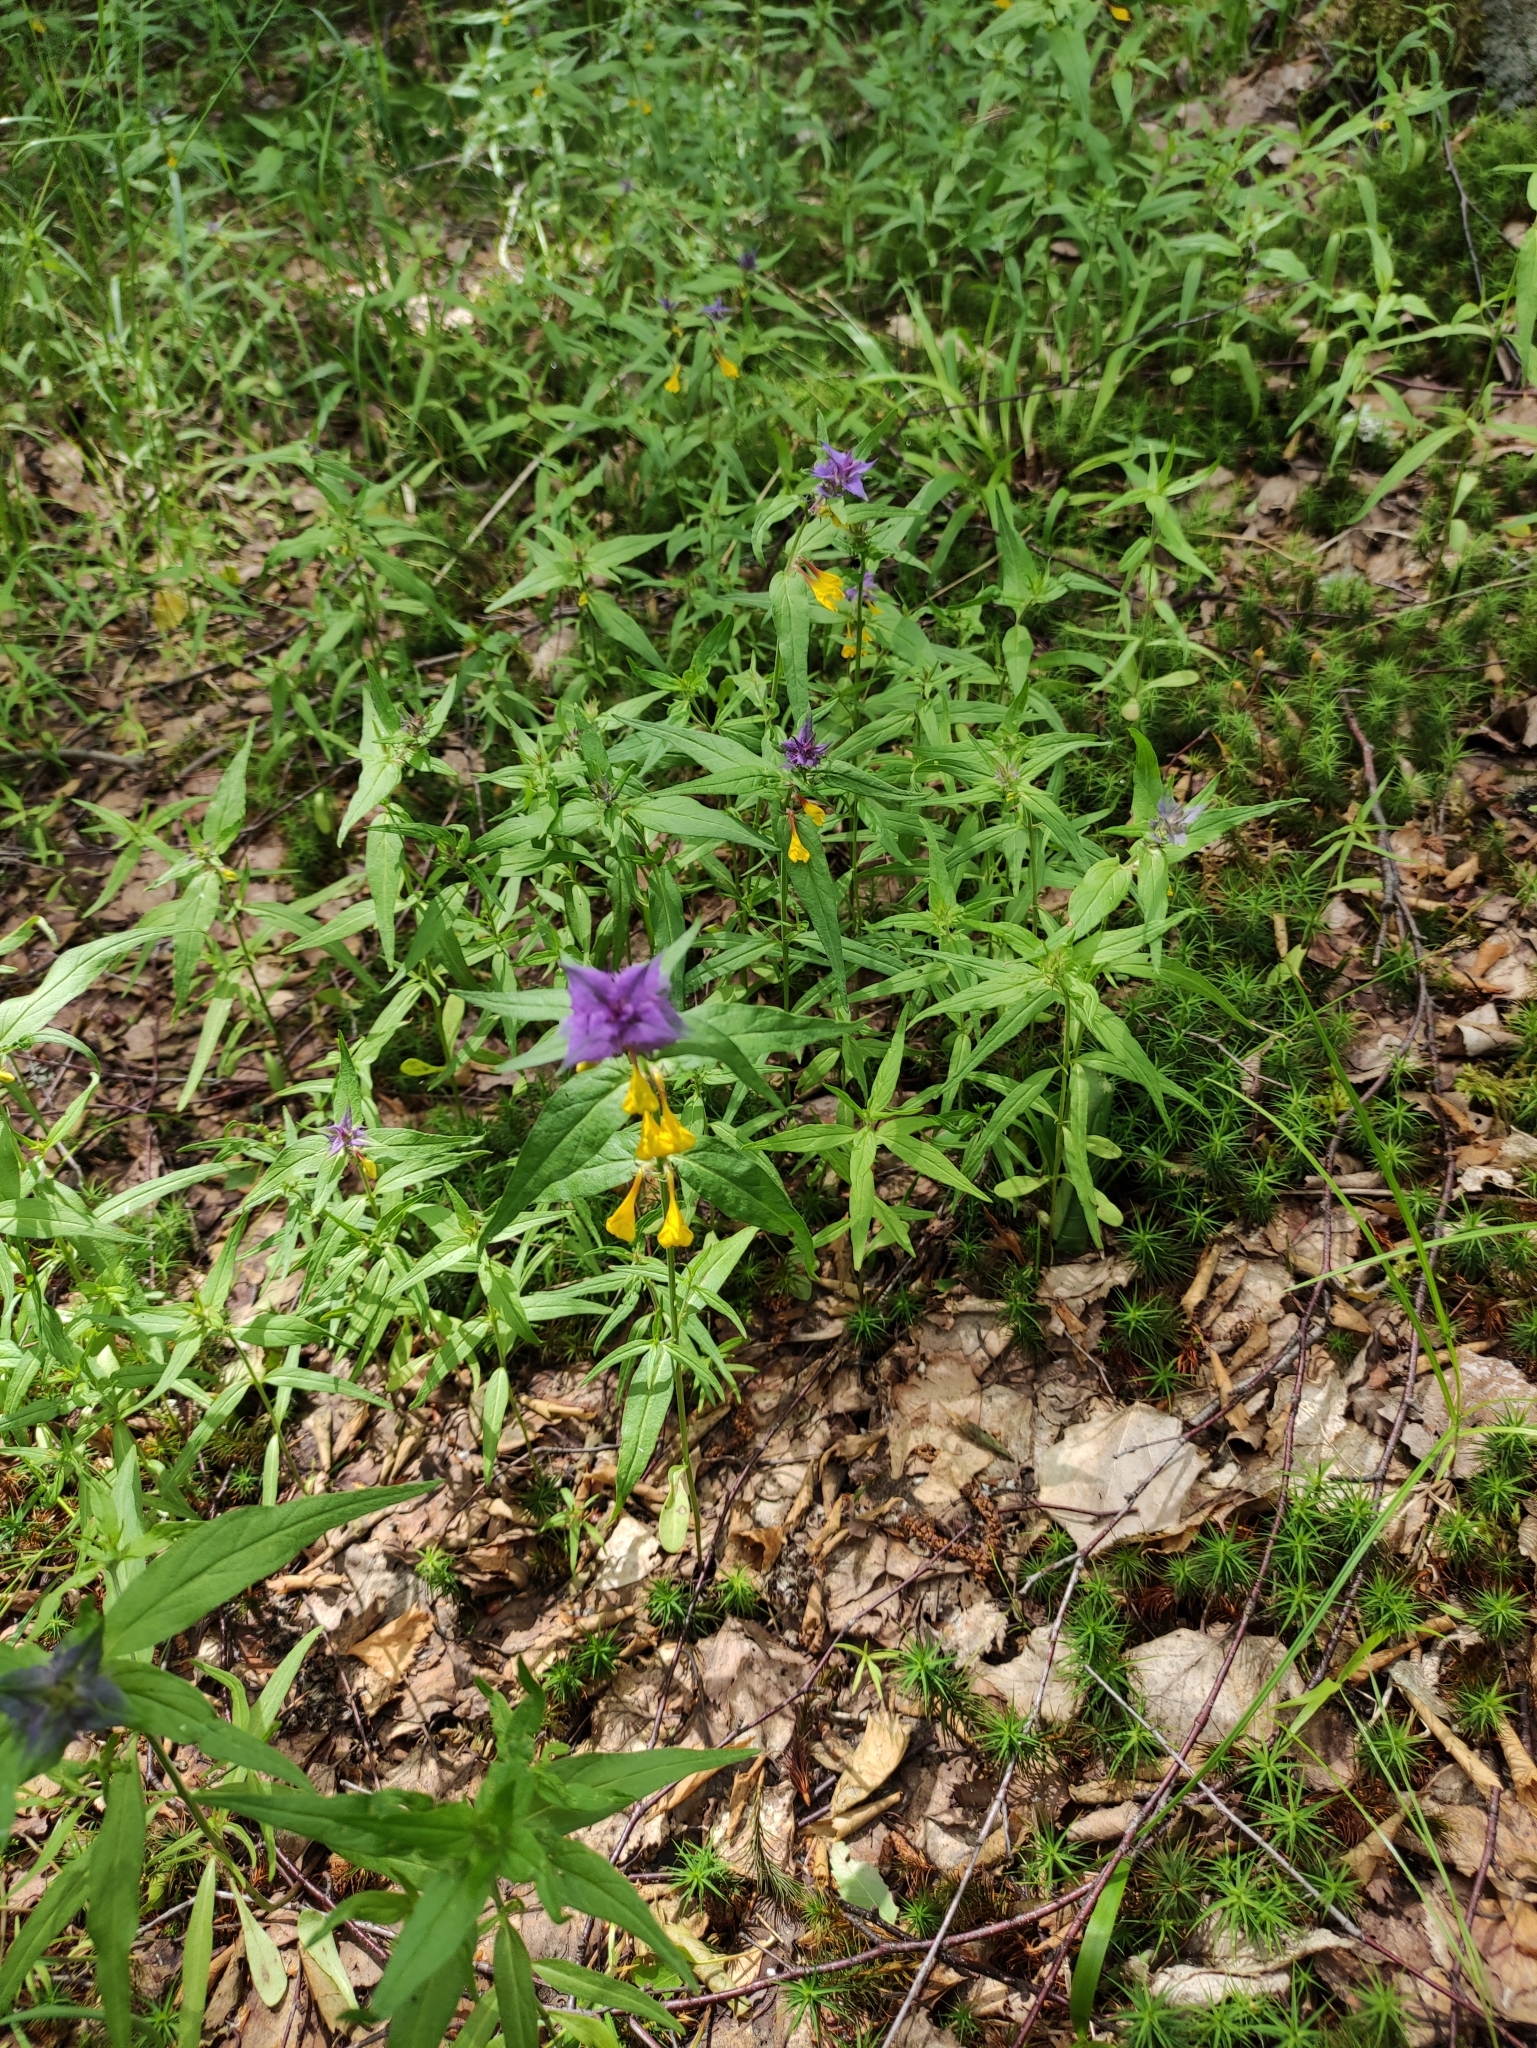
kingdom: Plantae
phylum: Tracheophyta
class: Magnoliopsida
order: Lamiales
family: Orobanchaceae
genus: Melampyrum
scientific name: Melampyrum nemorosum
